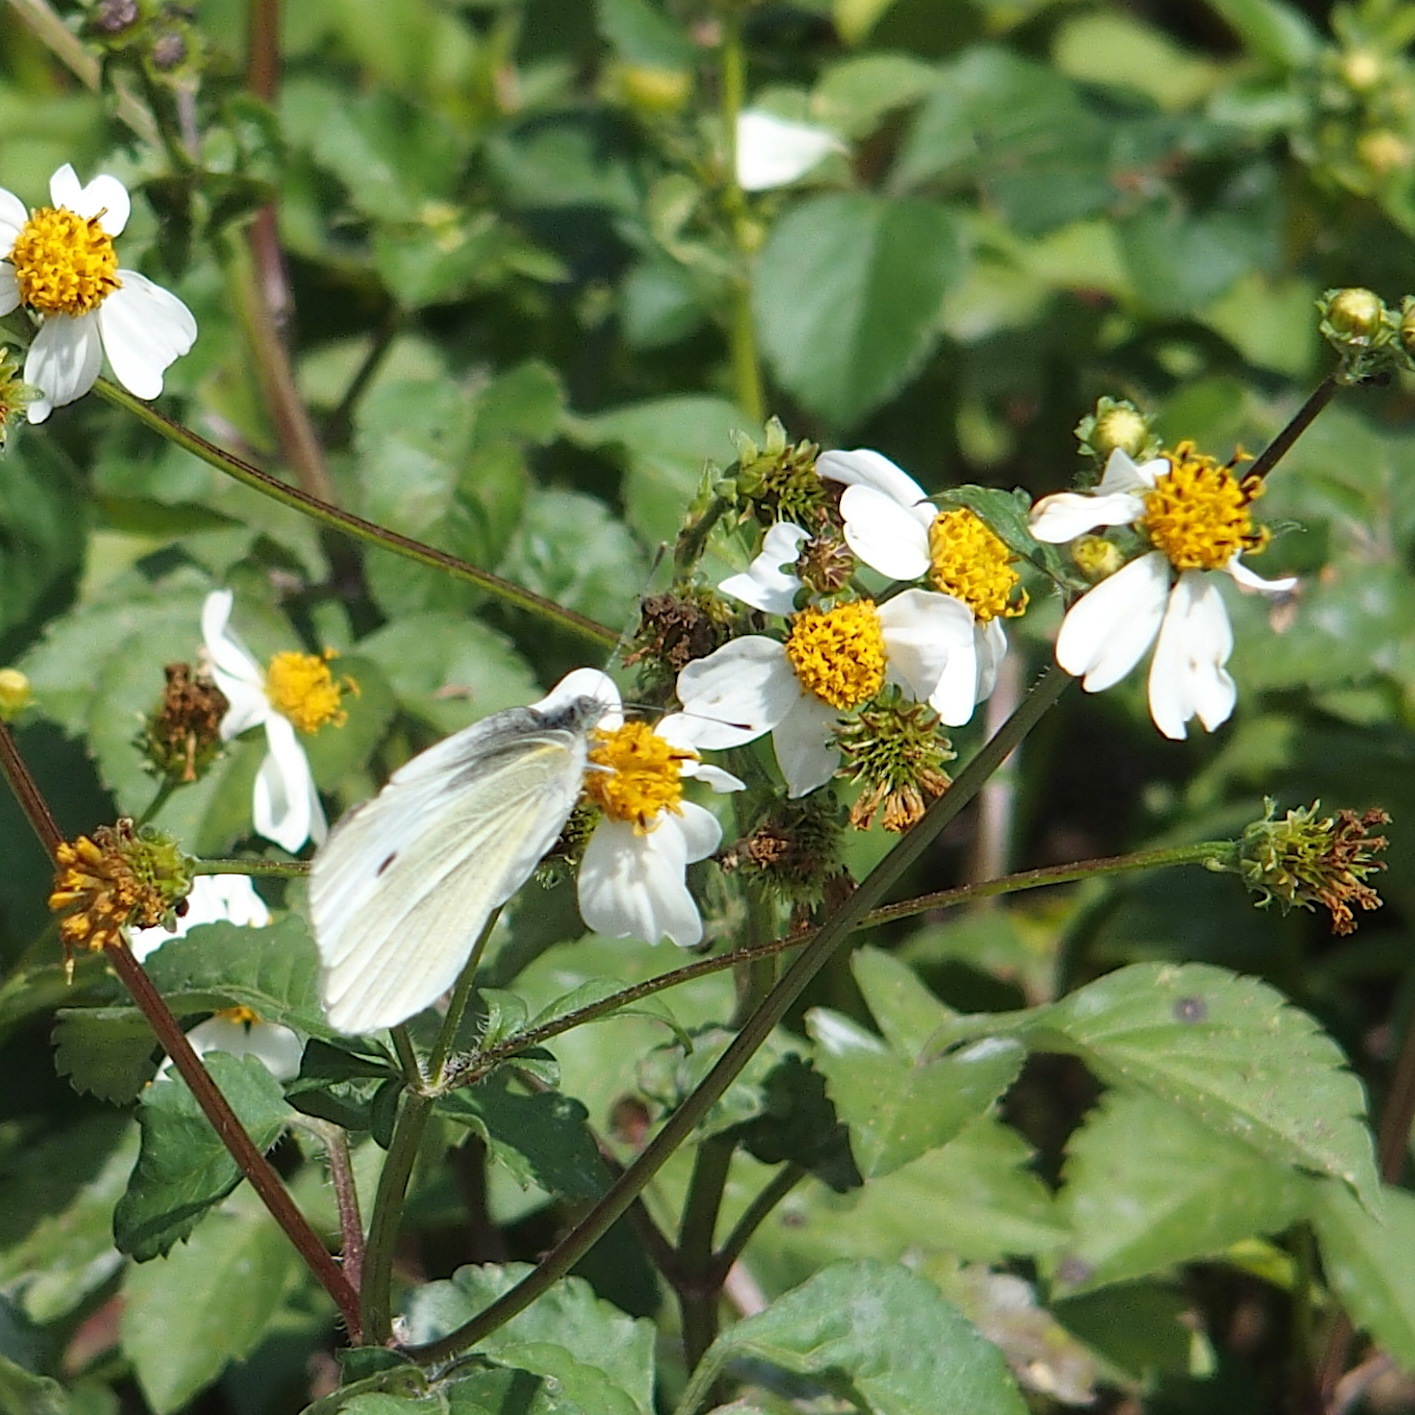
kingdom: Animalia
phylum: Arthropoda
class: Insecta
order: Lepidoptera
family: Pieridae
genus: Pieris
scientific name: Pieris rapae
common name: Small white
